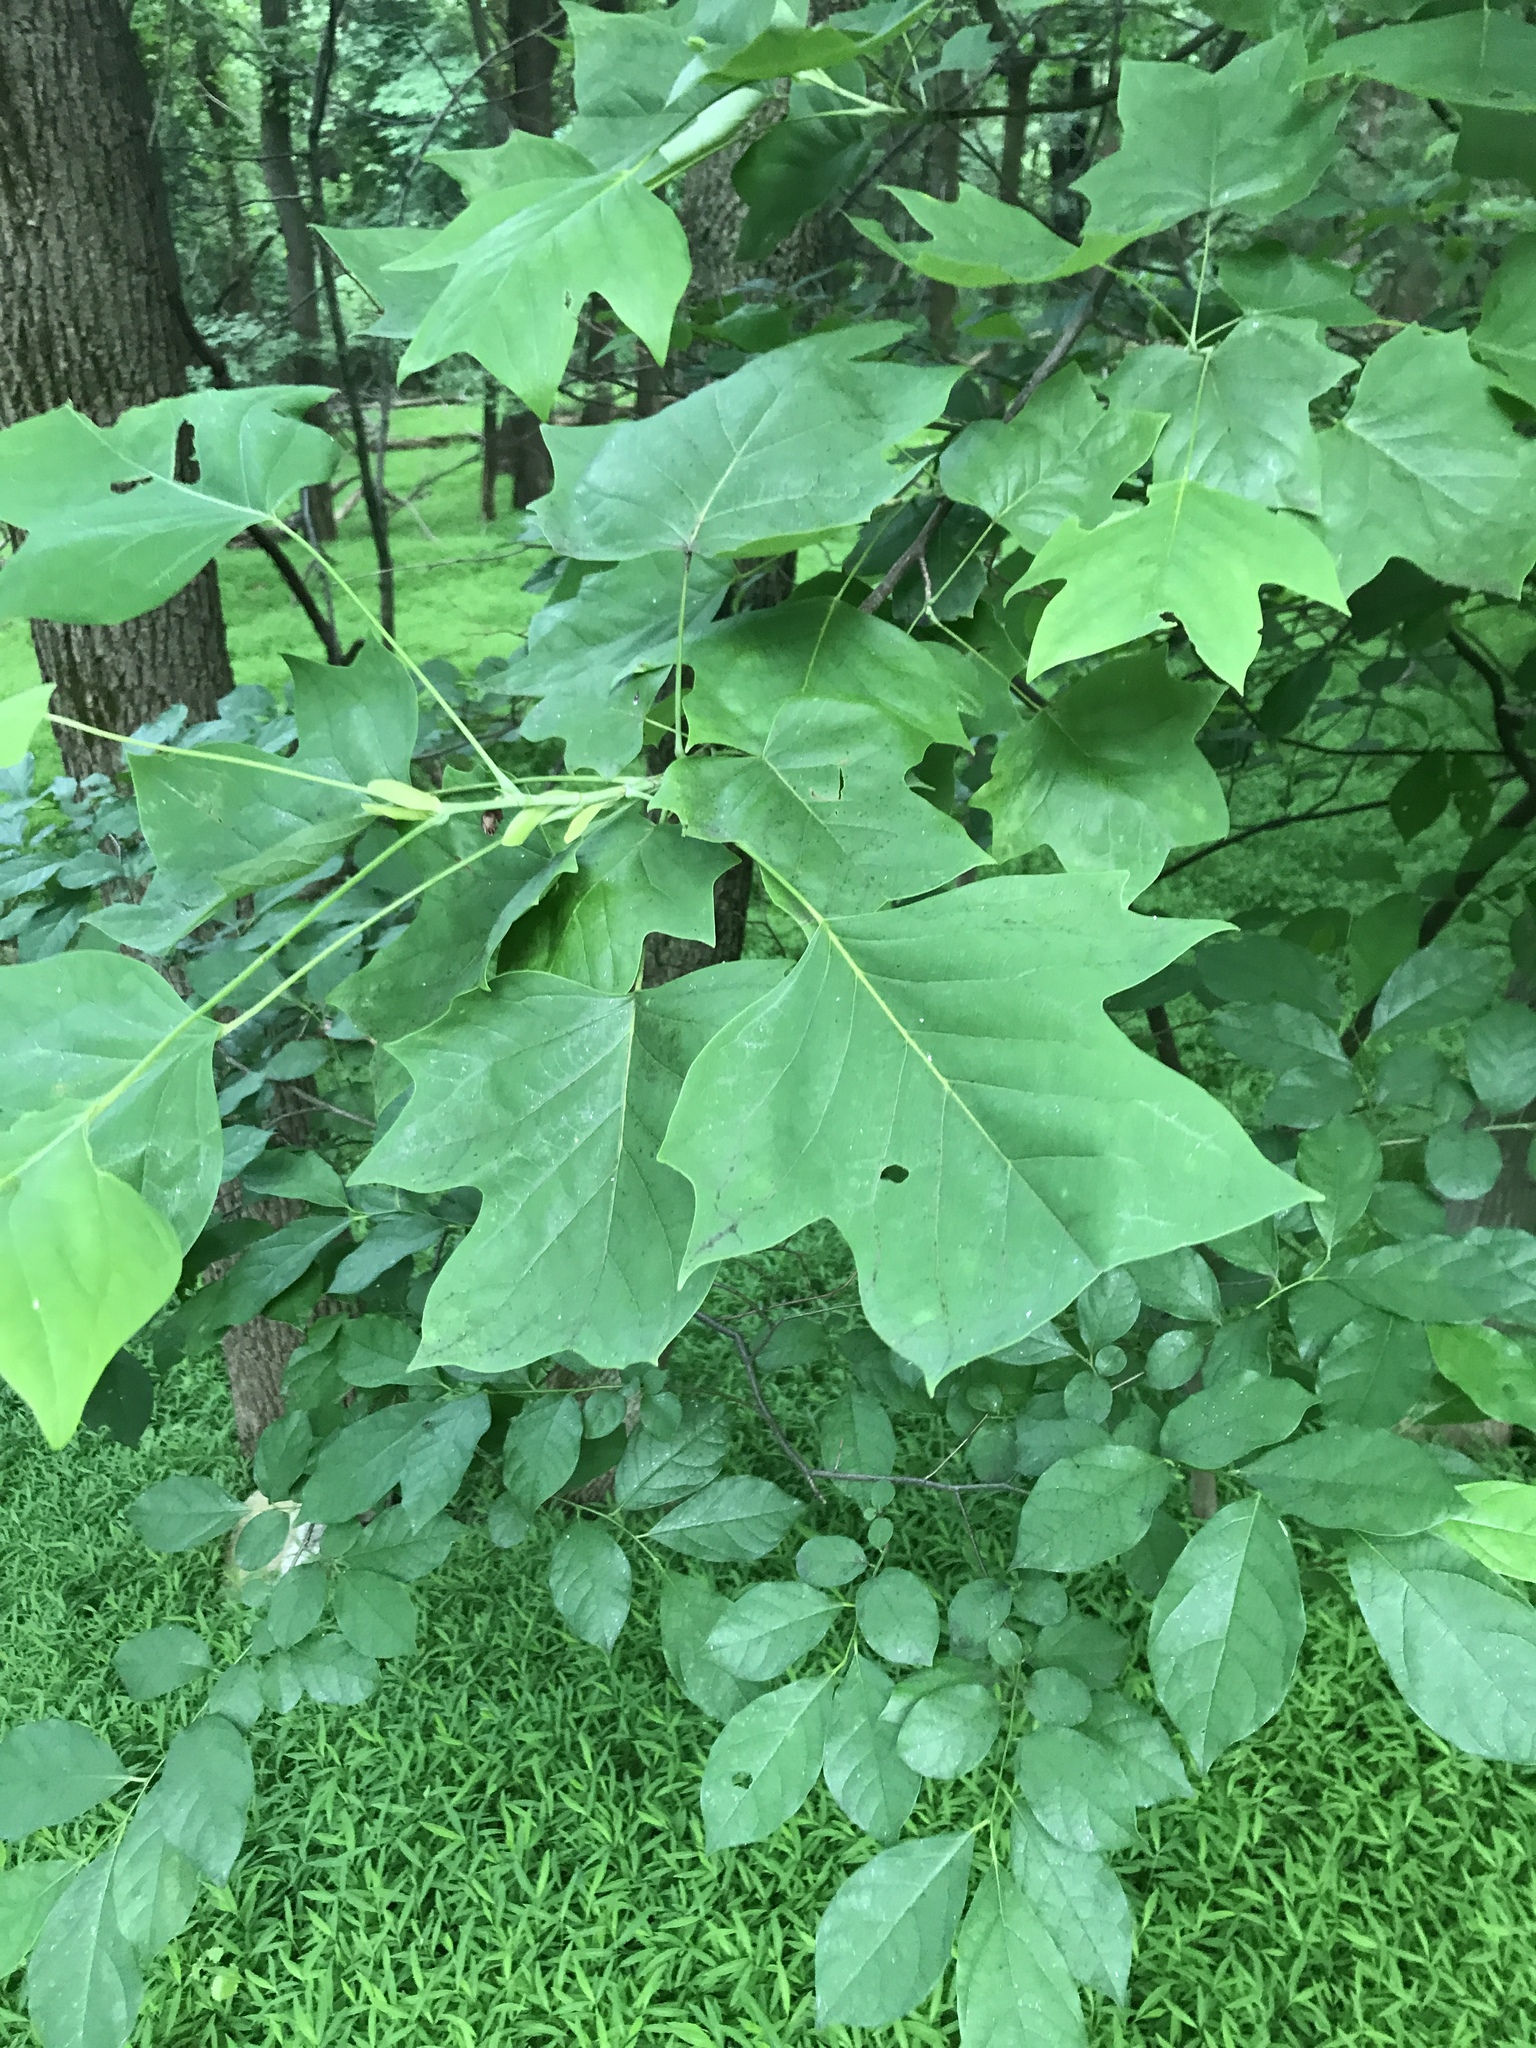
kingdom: Plantae
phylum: Tracheophyta
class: Magnoliopsida
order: Magnoliales
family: Magnoliaceae
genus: Liriodendron
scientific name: Liriodendron tulipifera
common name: Tulip tree
